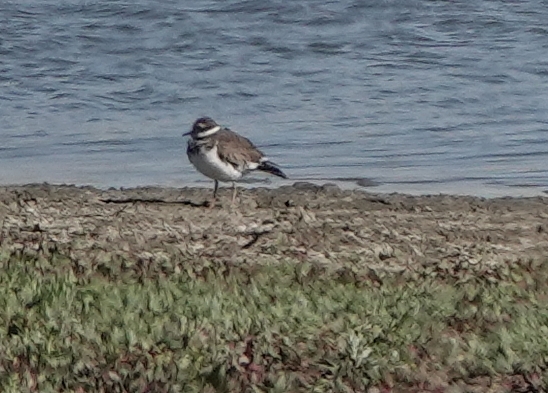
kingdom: Animalia
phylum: Chordata
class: Aves
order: Charadriiformes
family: Charadriidae
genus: Charadrius
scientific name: Charadrius vociferus
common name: Killdeer
